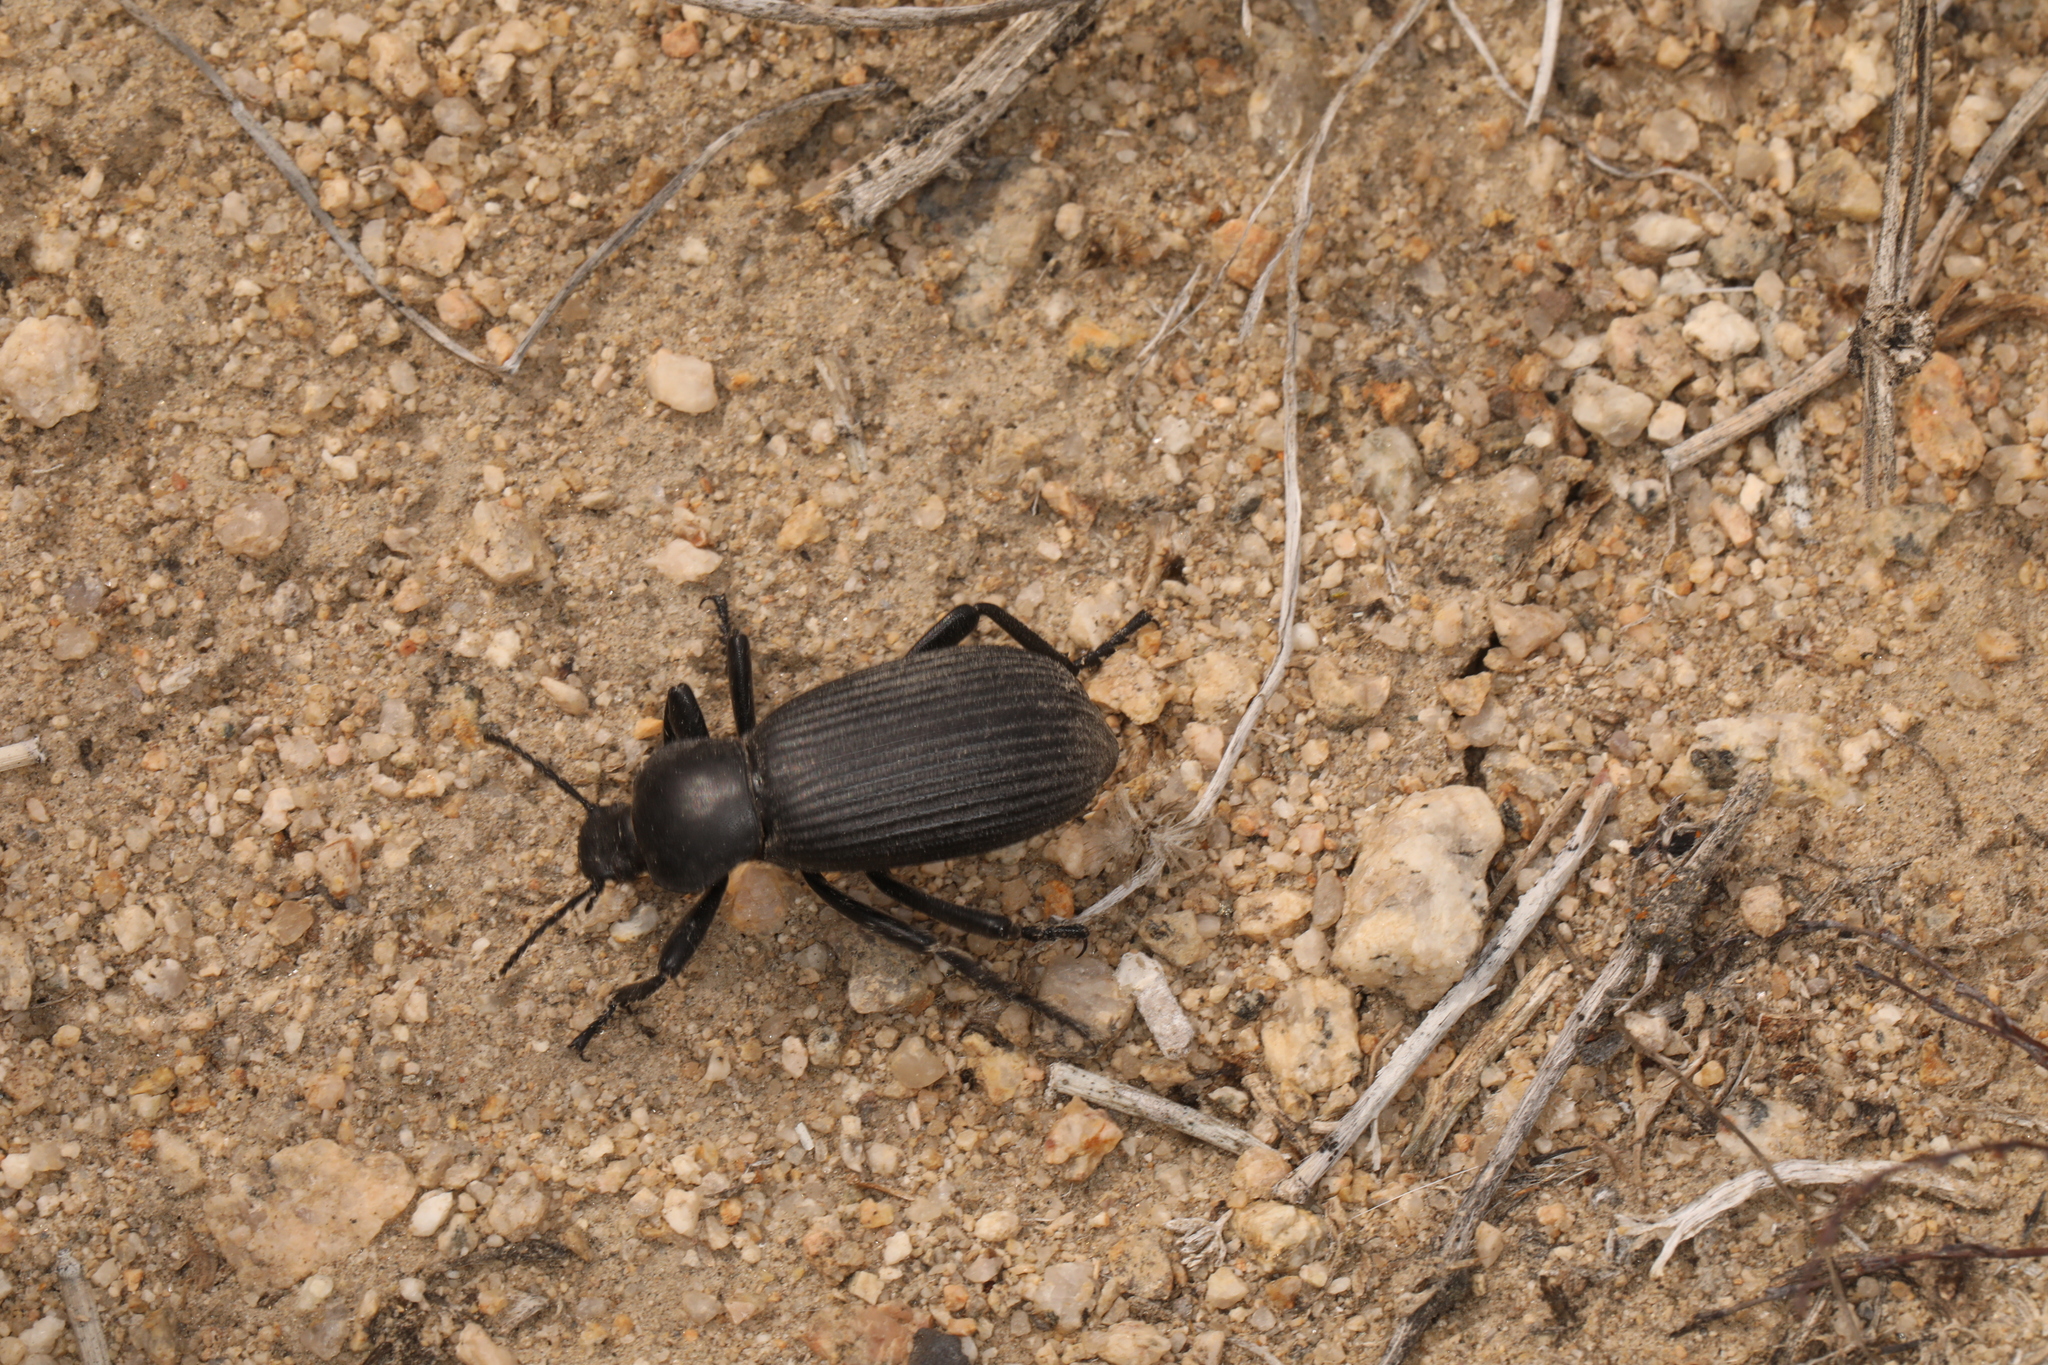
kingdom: Animalia
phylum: Arthropoda
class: Insecta
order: Coleoptera
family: Tenebrionidae
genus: Eleodes
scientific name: Eleodes obscura
